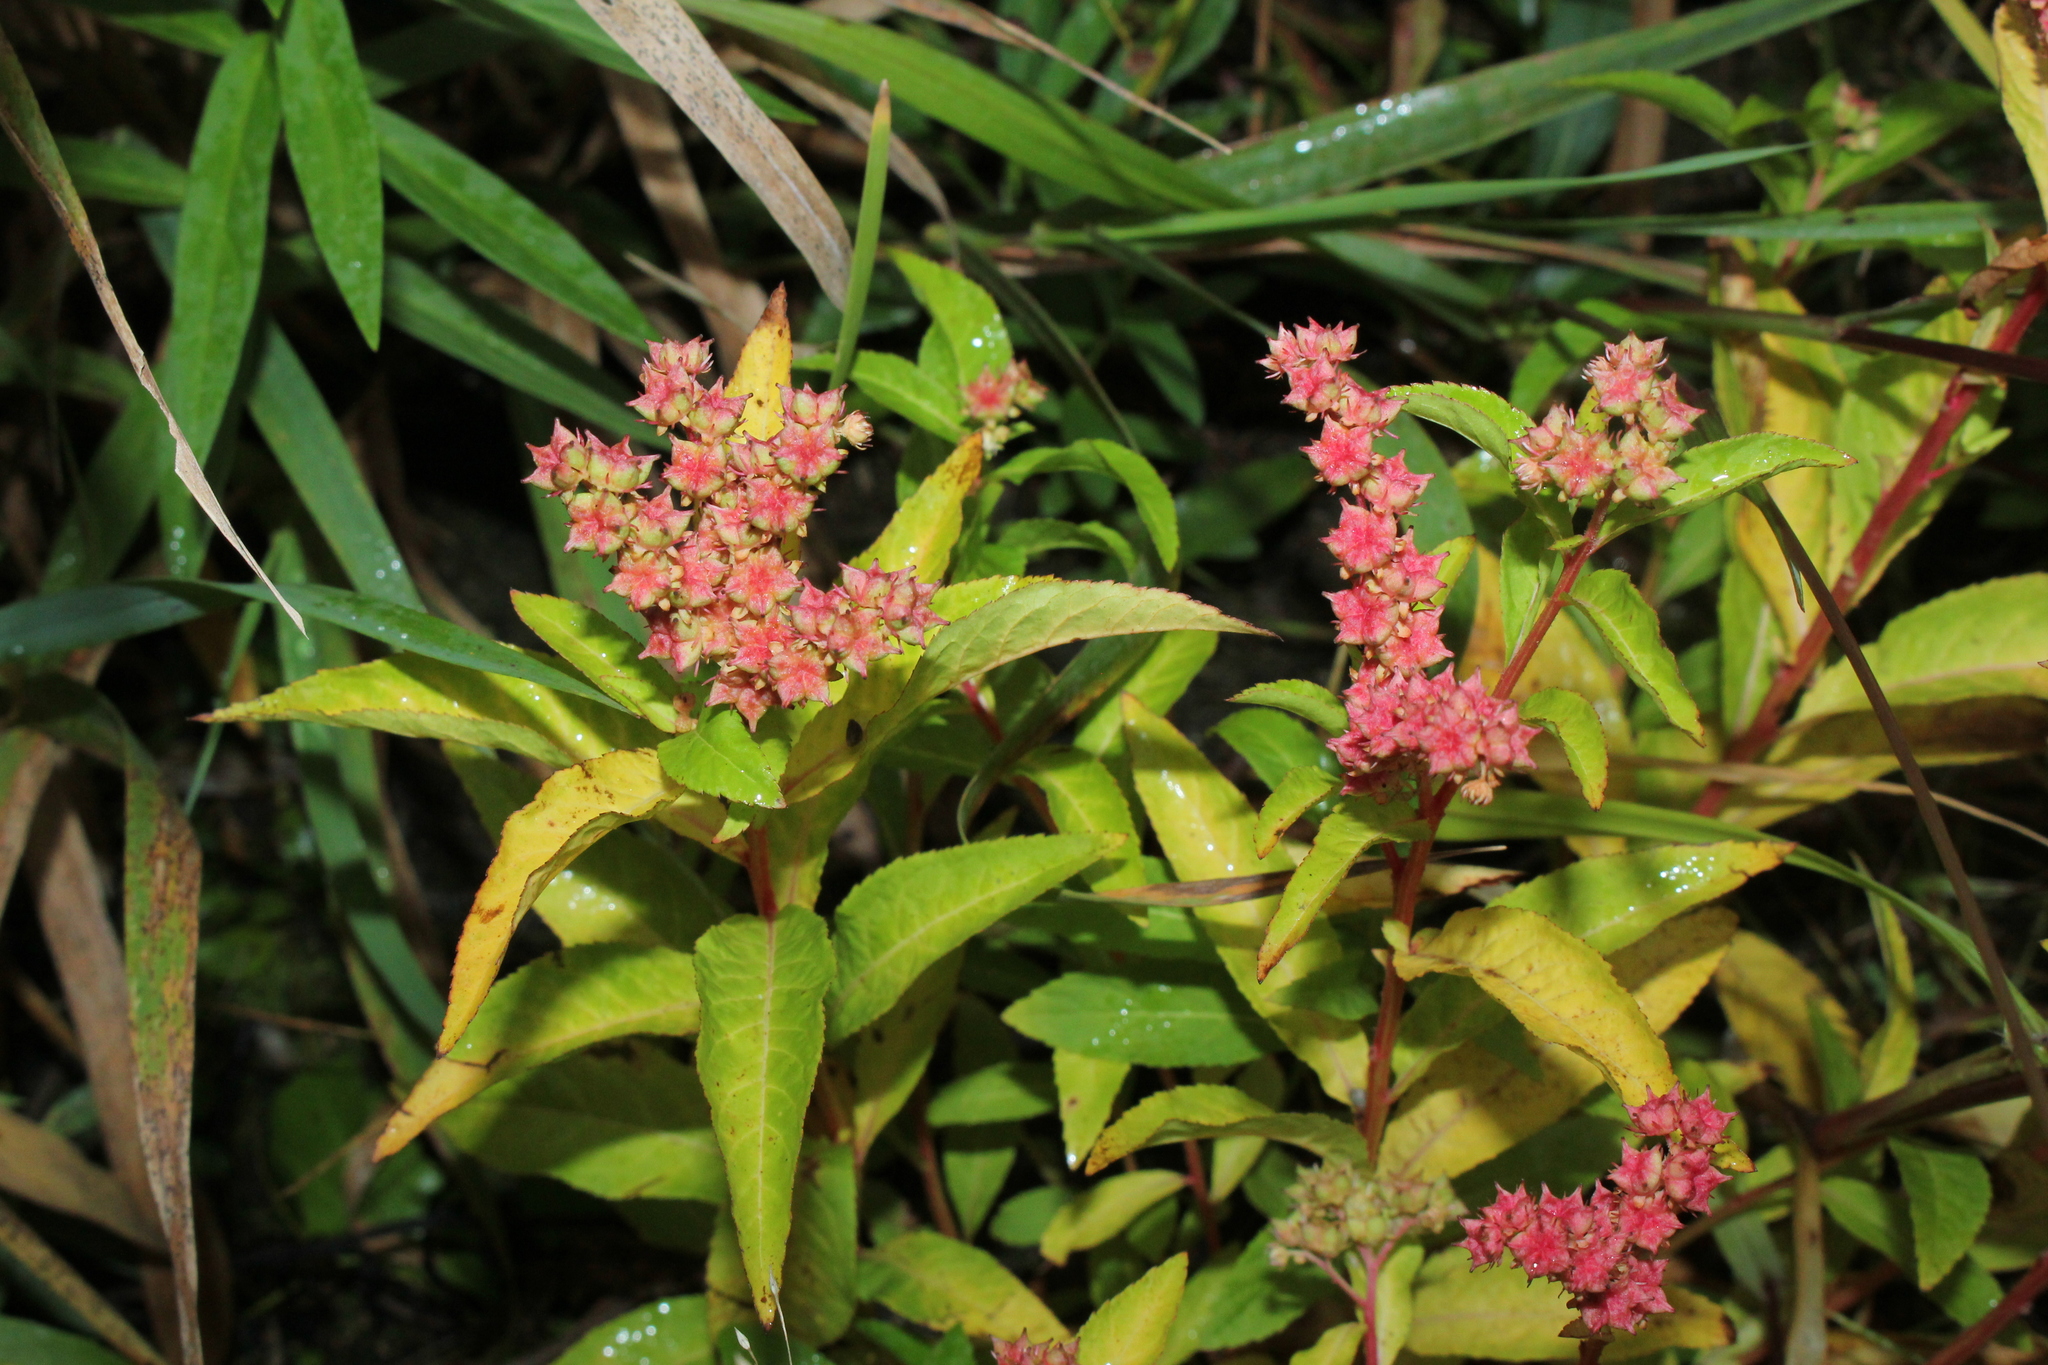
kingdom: Plantae
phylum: Tracheophyta
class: Magnoliopsida
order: Saxifragales
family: Penthoraceae
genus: Penthorum
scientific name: Penthorum sedoides
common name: Ditch stonecrop
